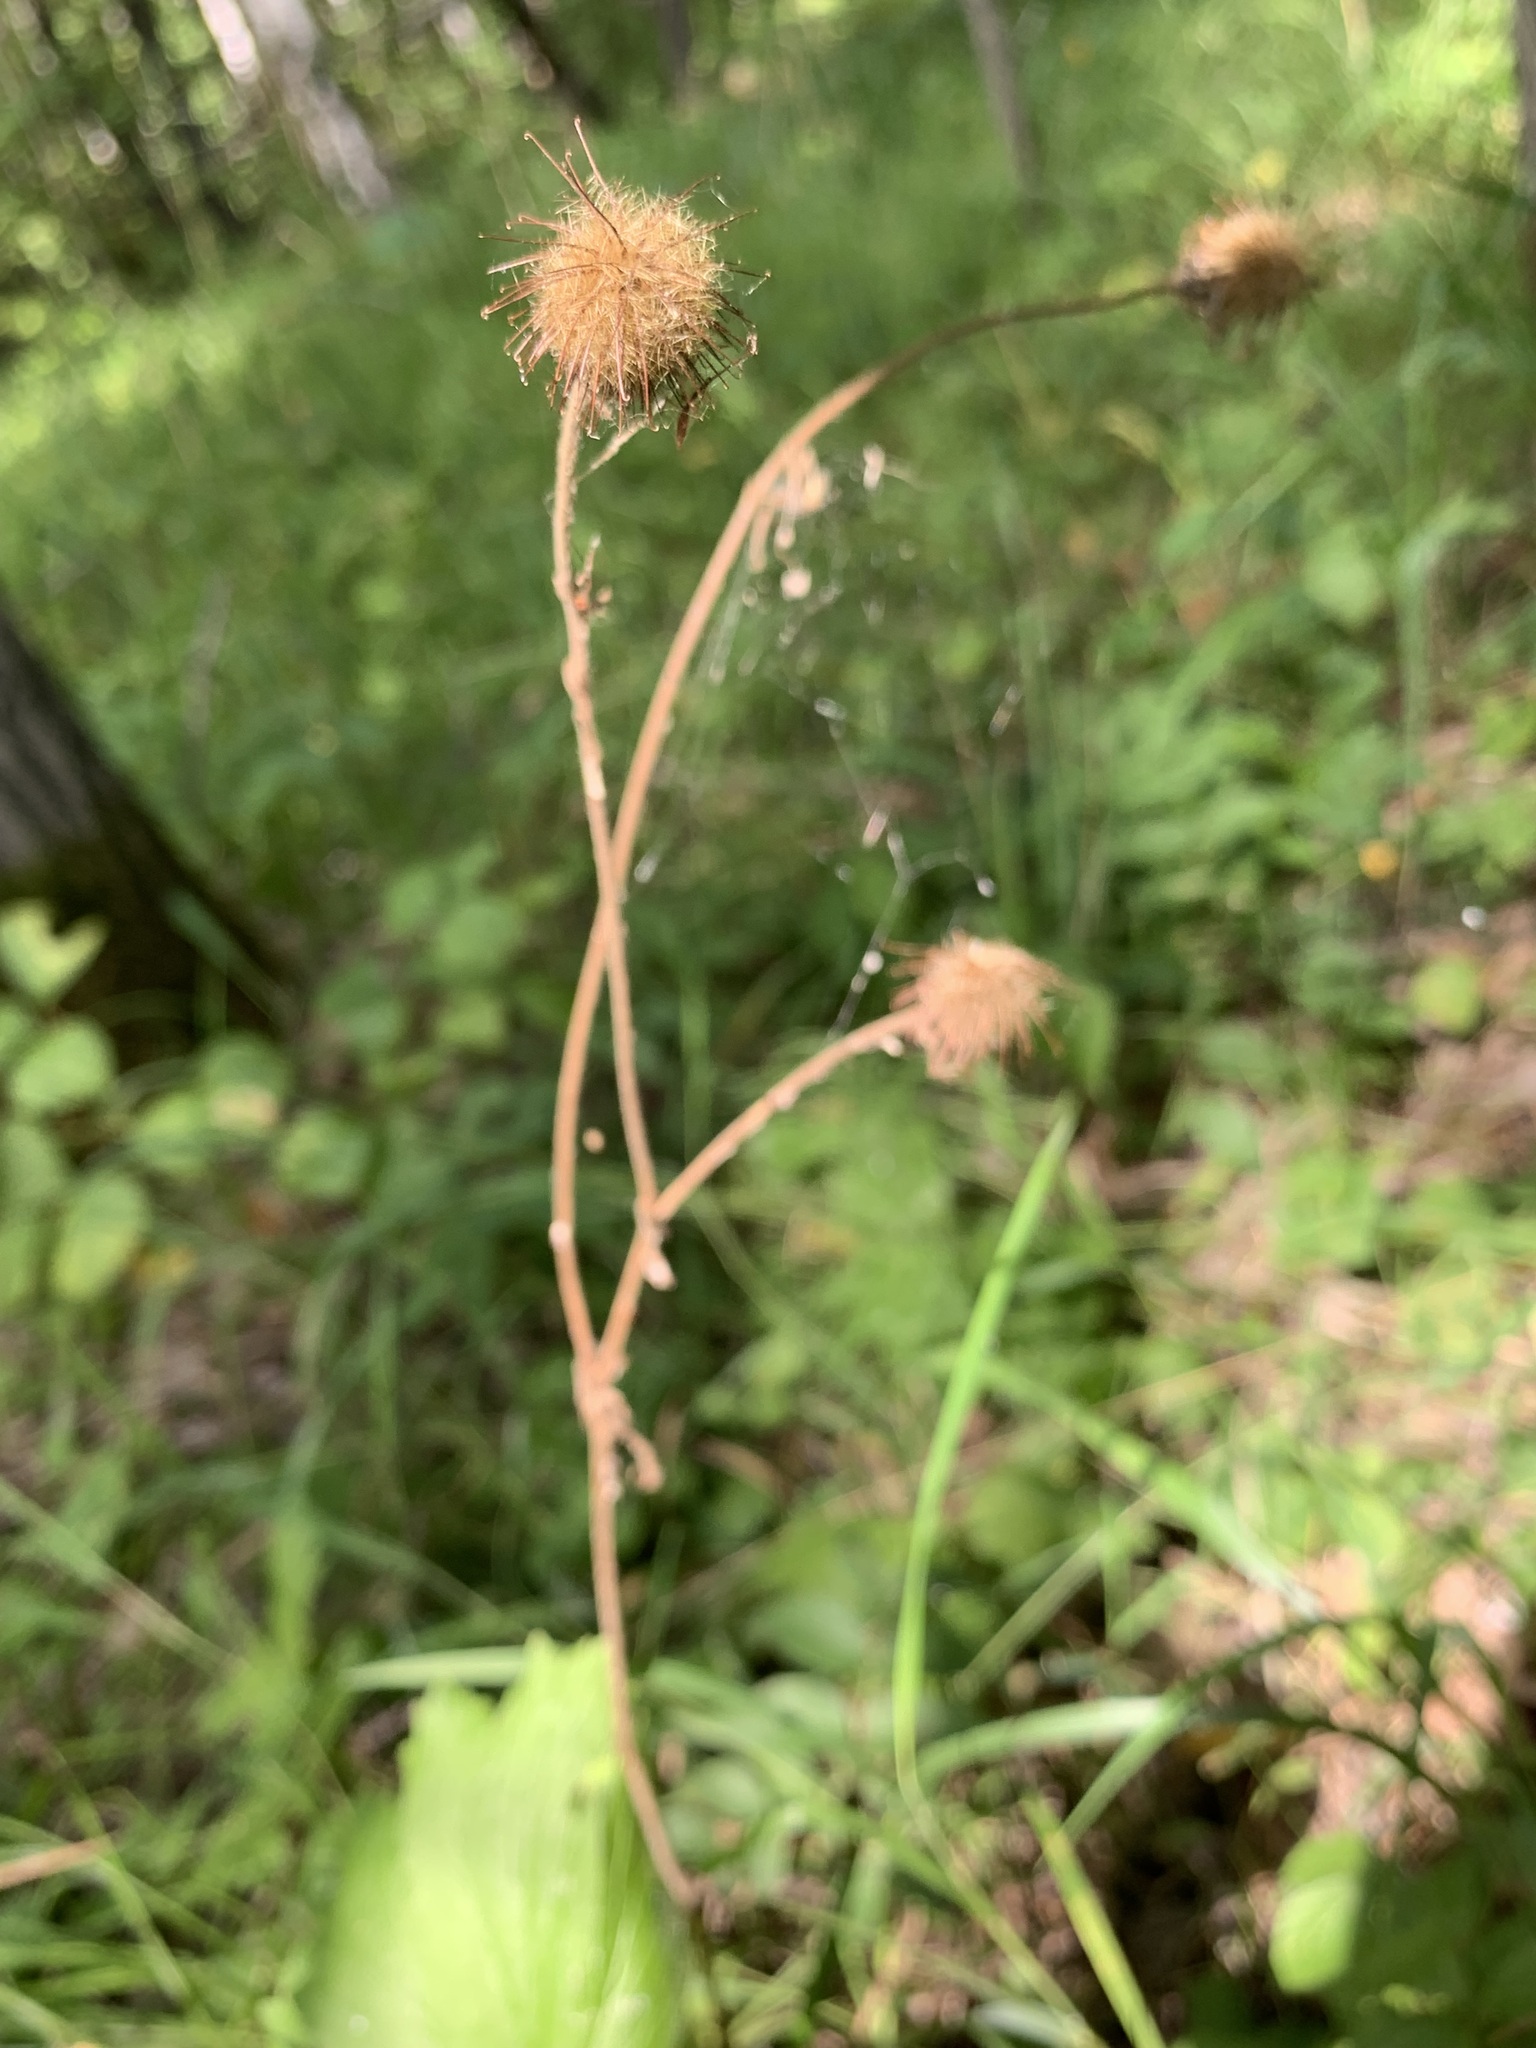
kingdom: Plantae
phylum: Tracheophyta
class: Magnoliopsida
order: Rosales
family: Rosaceae
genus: Geum
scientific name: Geum rivale
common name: Water avens
